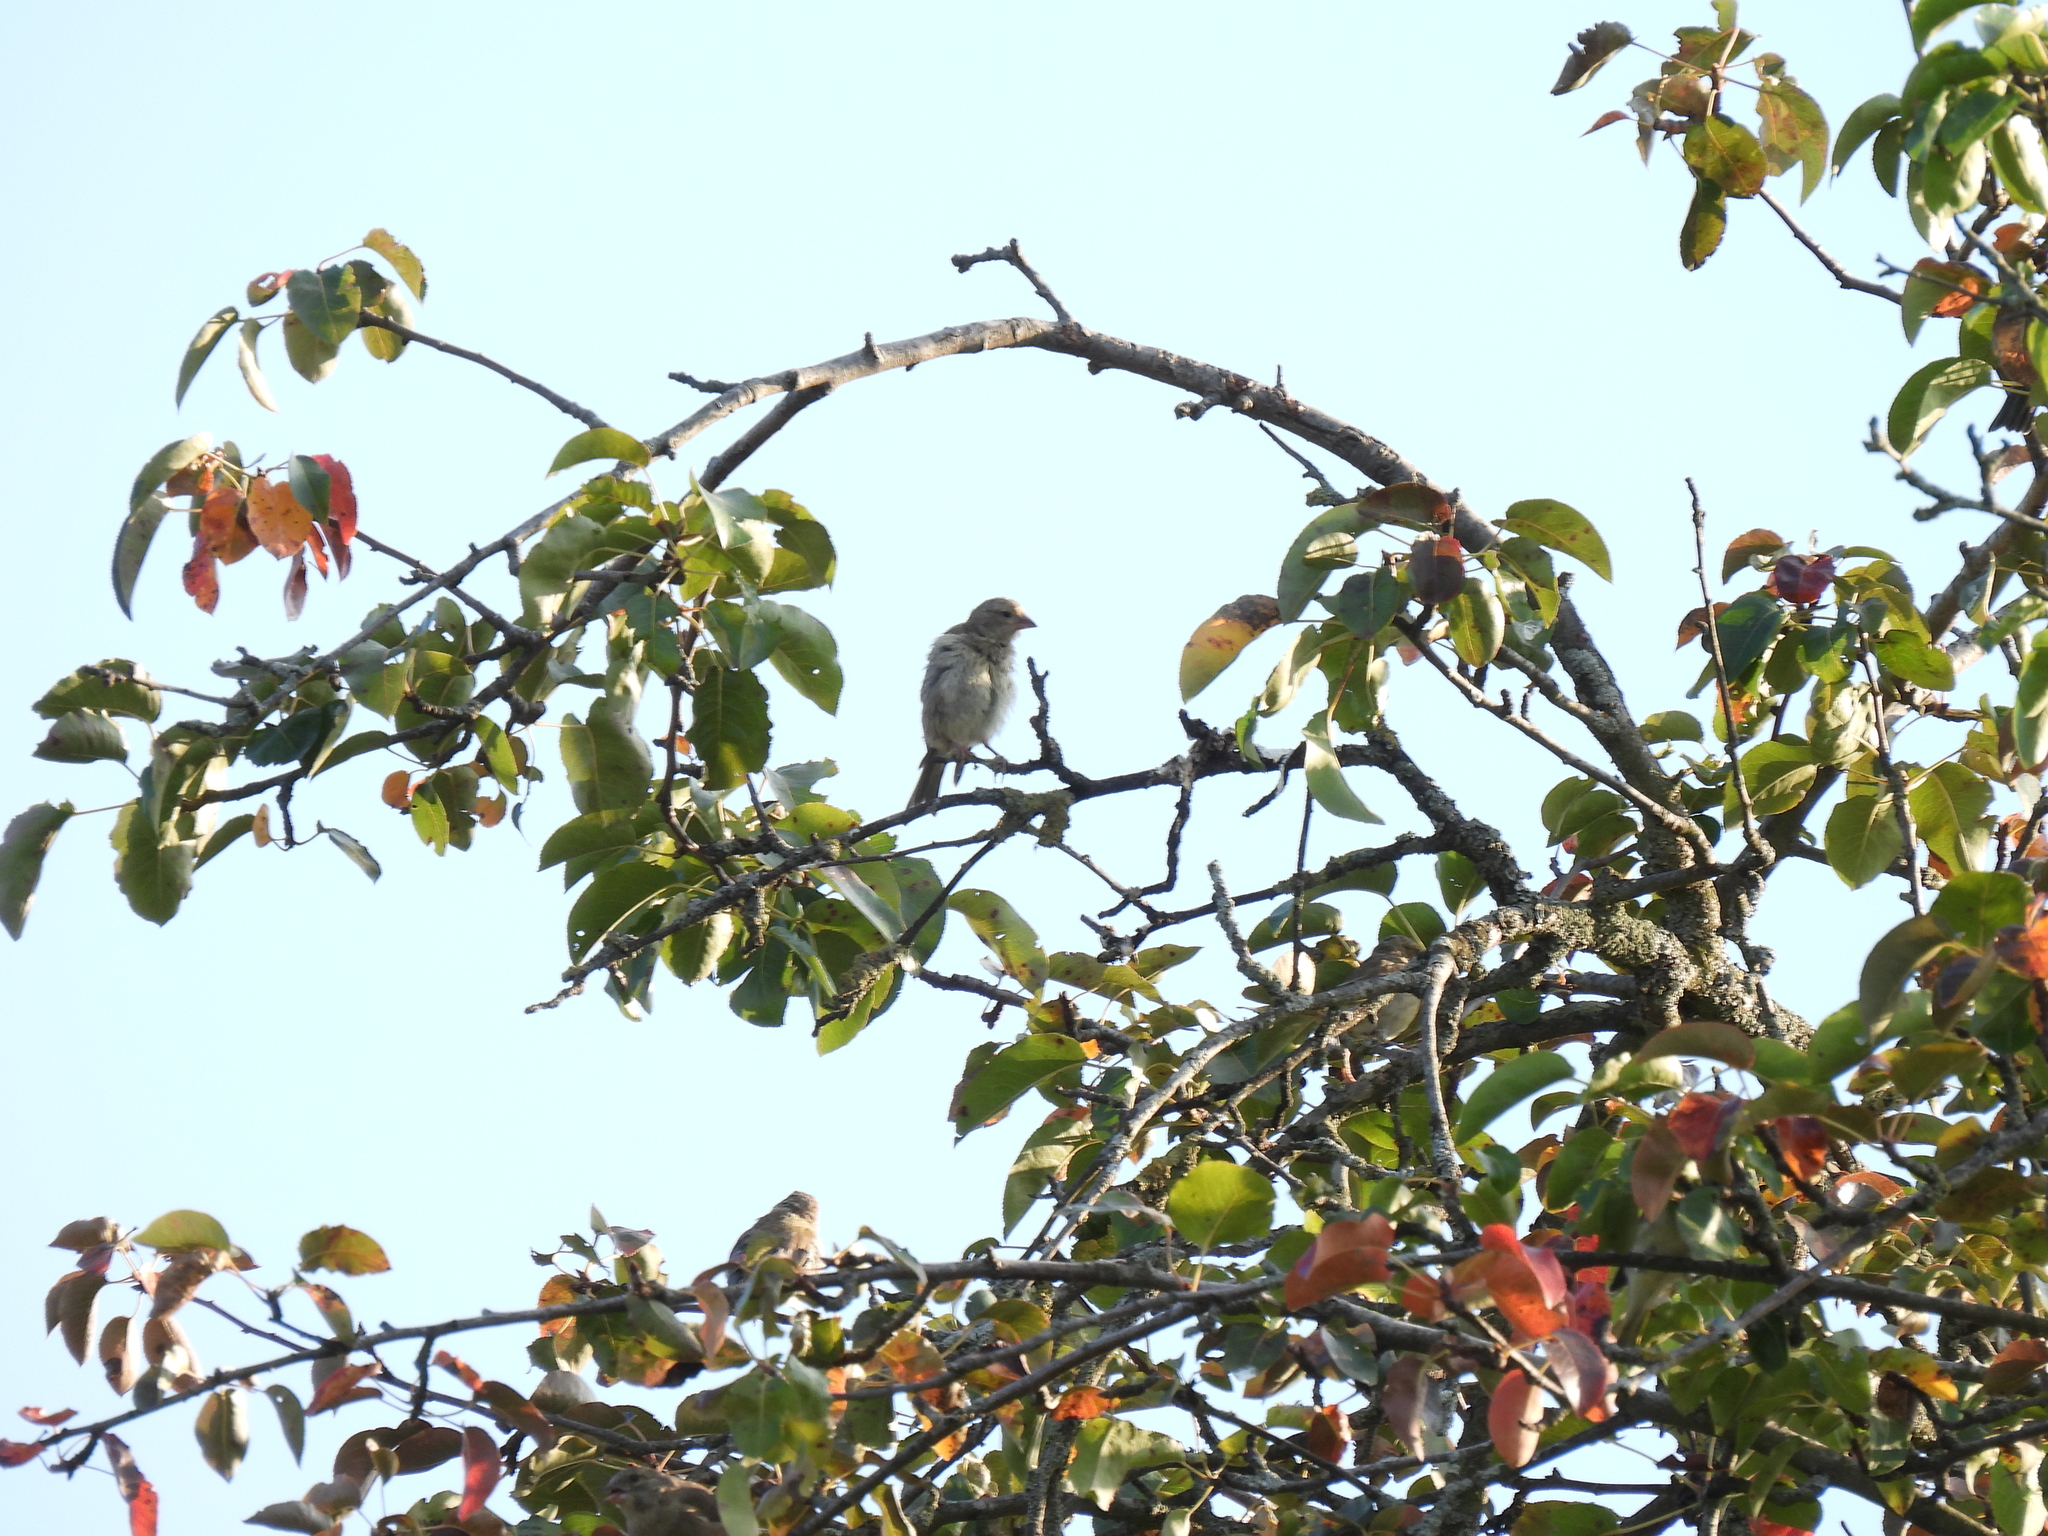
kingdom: Animalia
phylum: Chordata
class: Aves
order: Passeriformes
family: Fringillidae
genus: Fringilla
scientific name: Fringilla coelebs
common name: Common chaffinch
